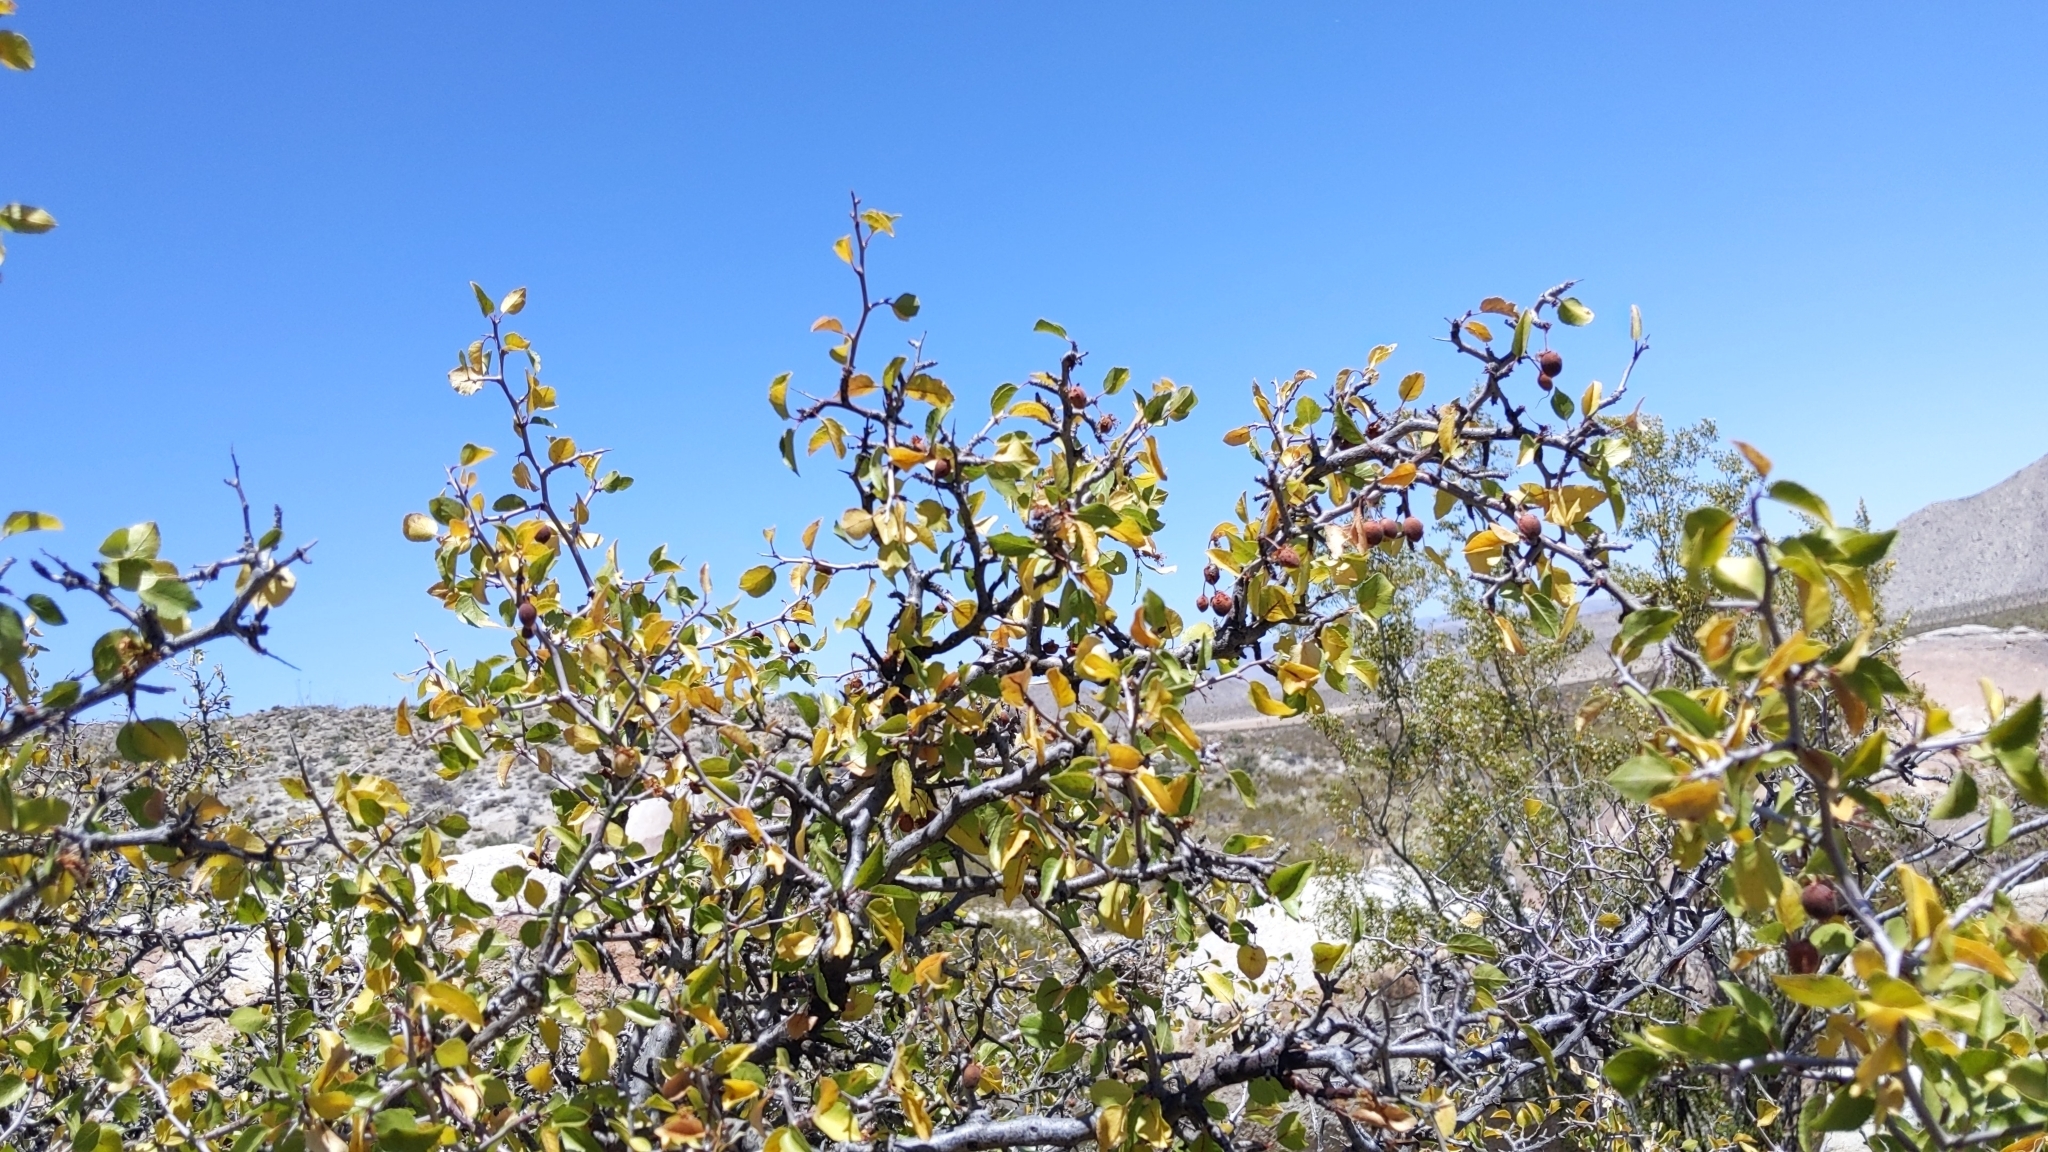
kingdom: Plantae
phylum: Tracheophyta
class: Magnoliopsida
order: Rosales
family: Rosaceae
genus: Prunus
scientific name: Prunus fremontii
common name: Desert apricot
